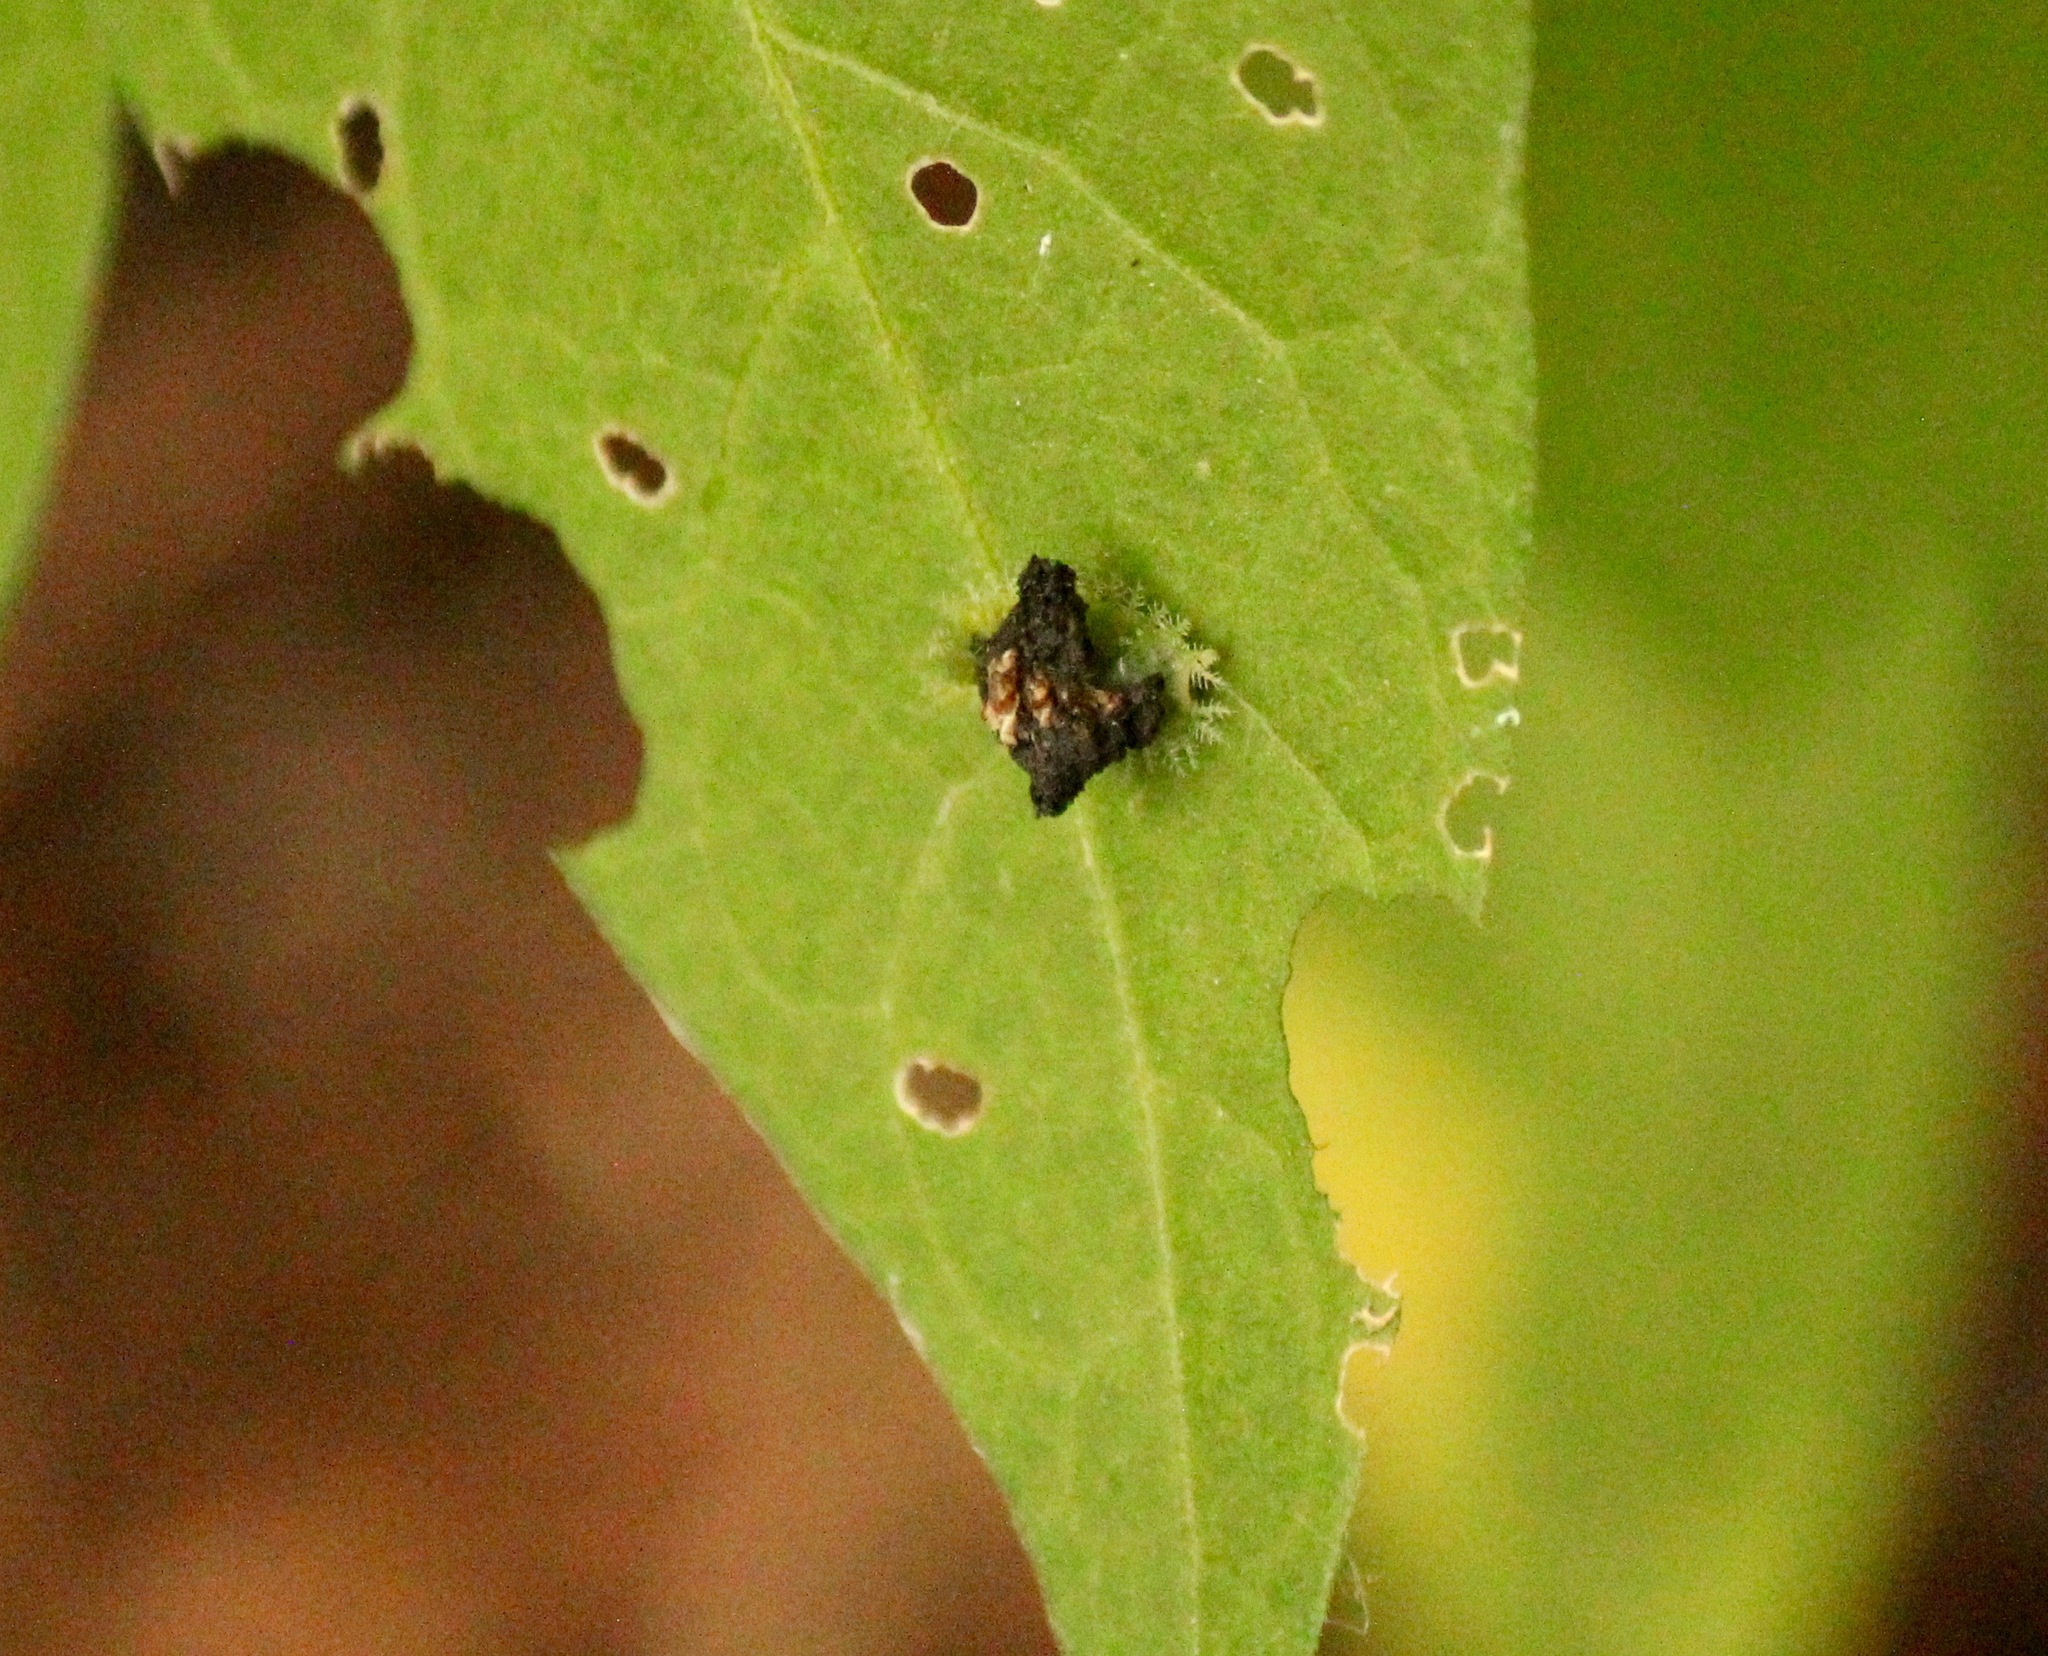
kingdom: Animalia
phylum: Arthropoda
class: Insecta
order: Coleoptera
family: Chrysomelidae
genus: Helocassis
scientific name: Helocassis clavata
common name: Clavate tortoise beetle
